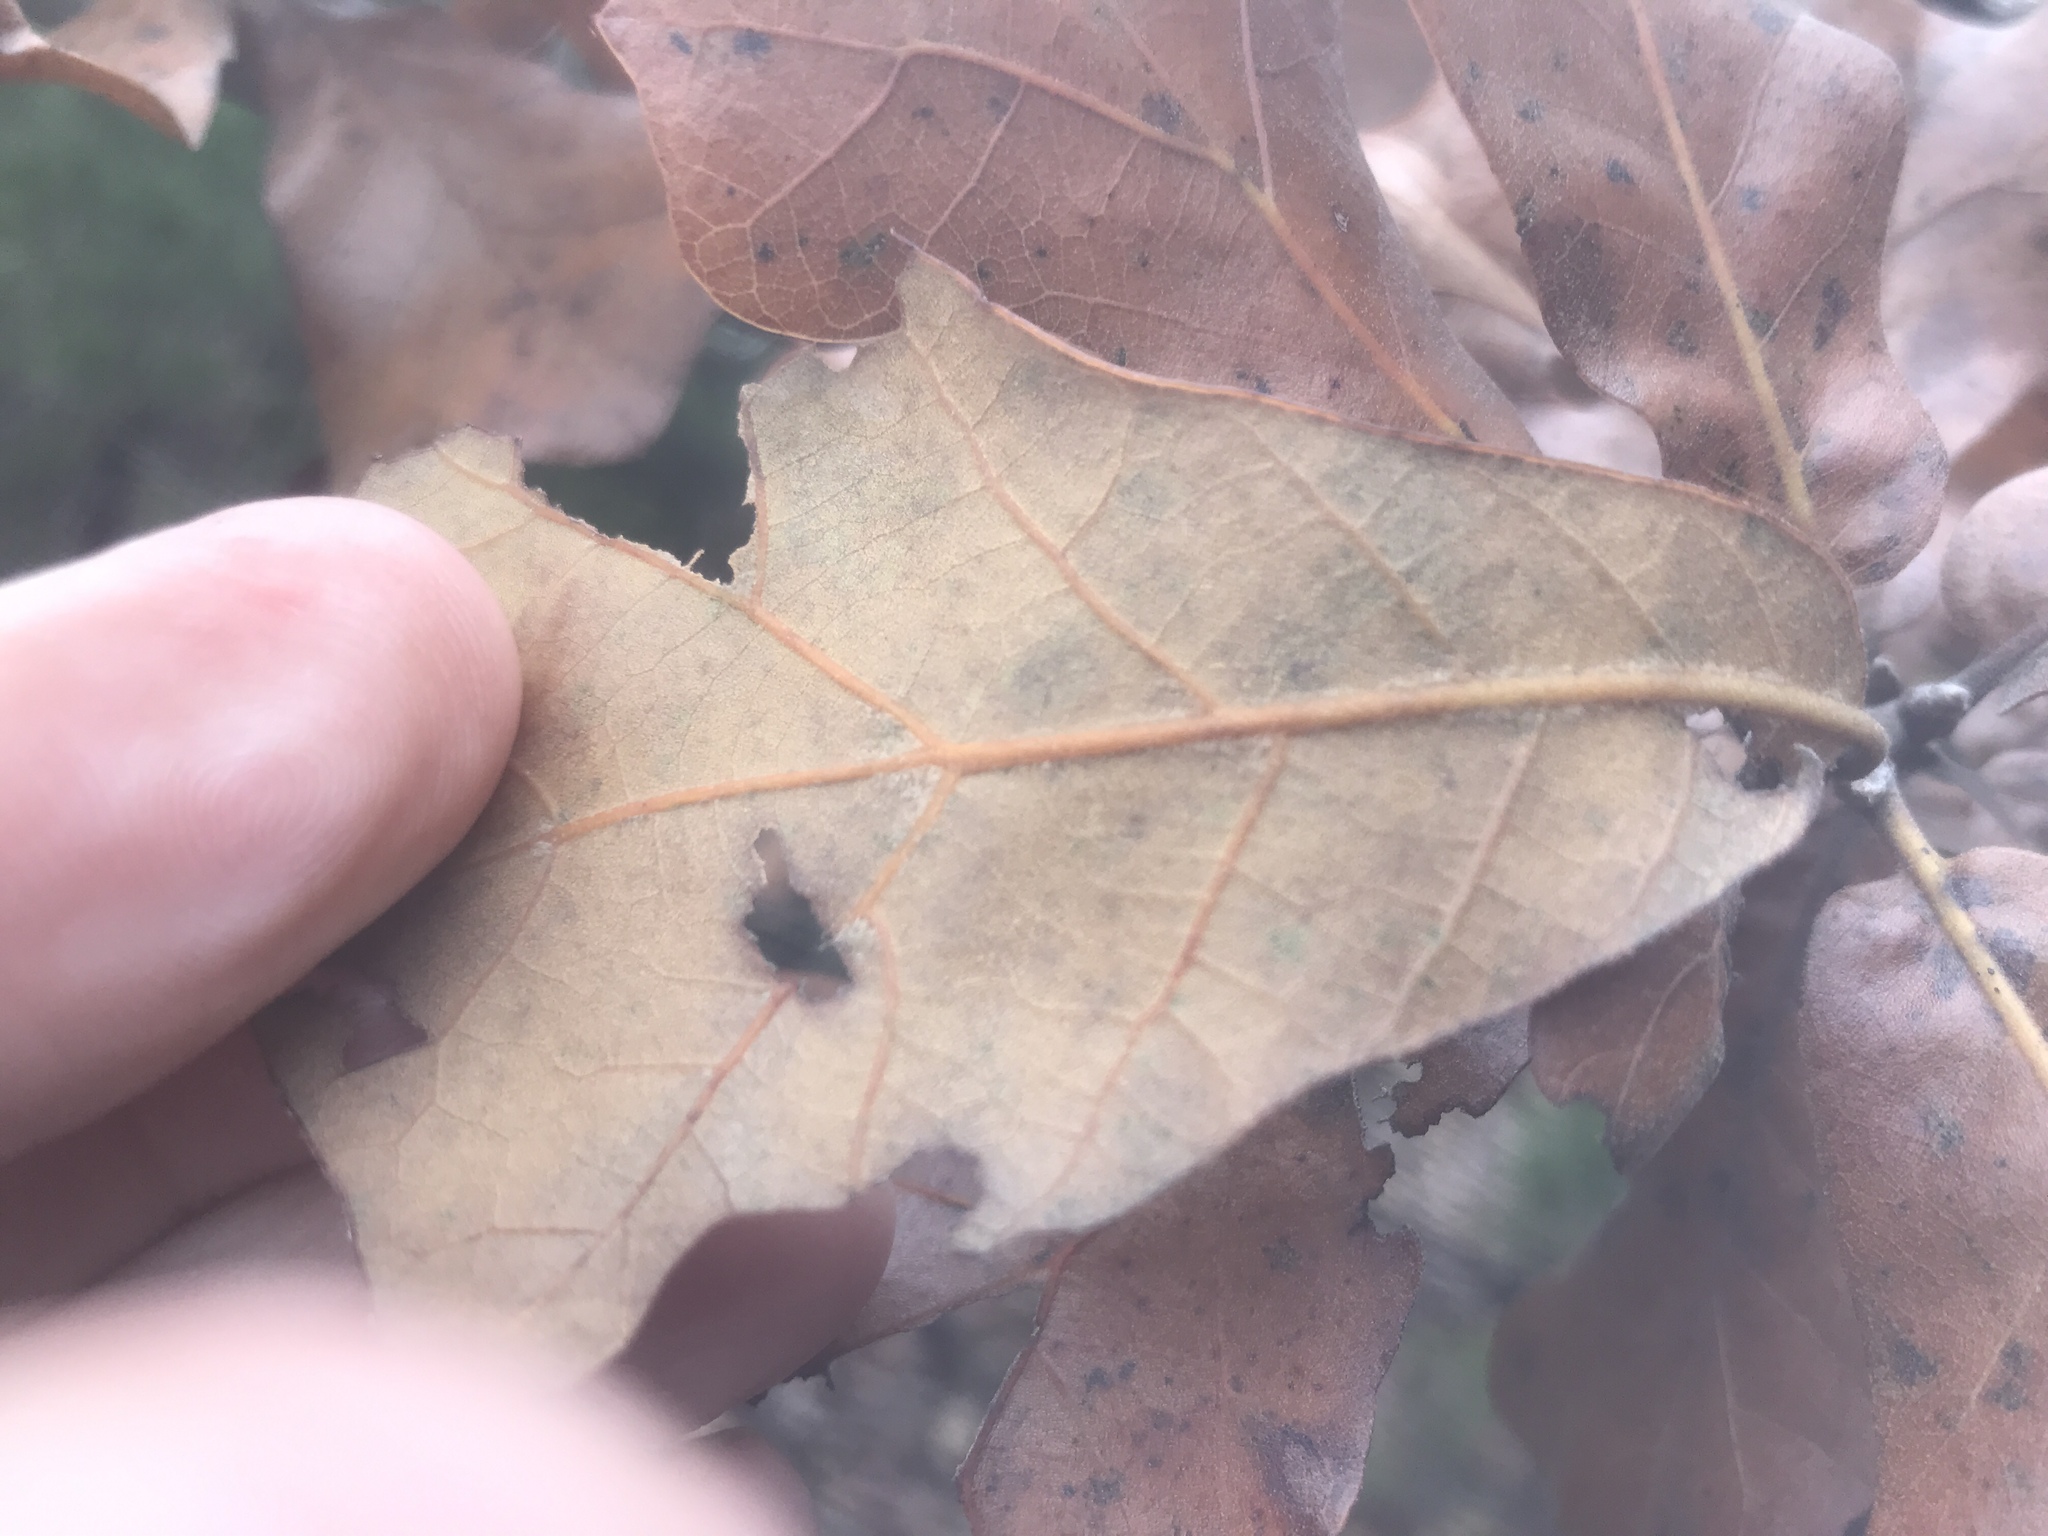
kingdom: Plantae
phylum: Tracheophyta
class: Magnoliopsida
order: Fagales
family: Fagaceae
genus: Quercus
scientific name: Quercus marilandica
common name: Blackjack oak
